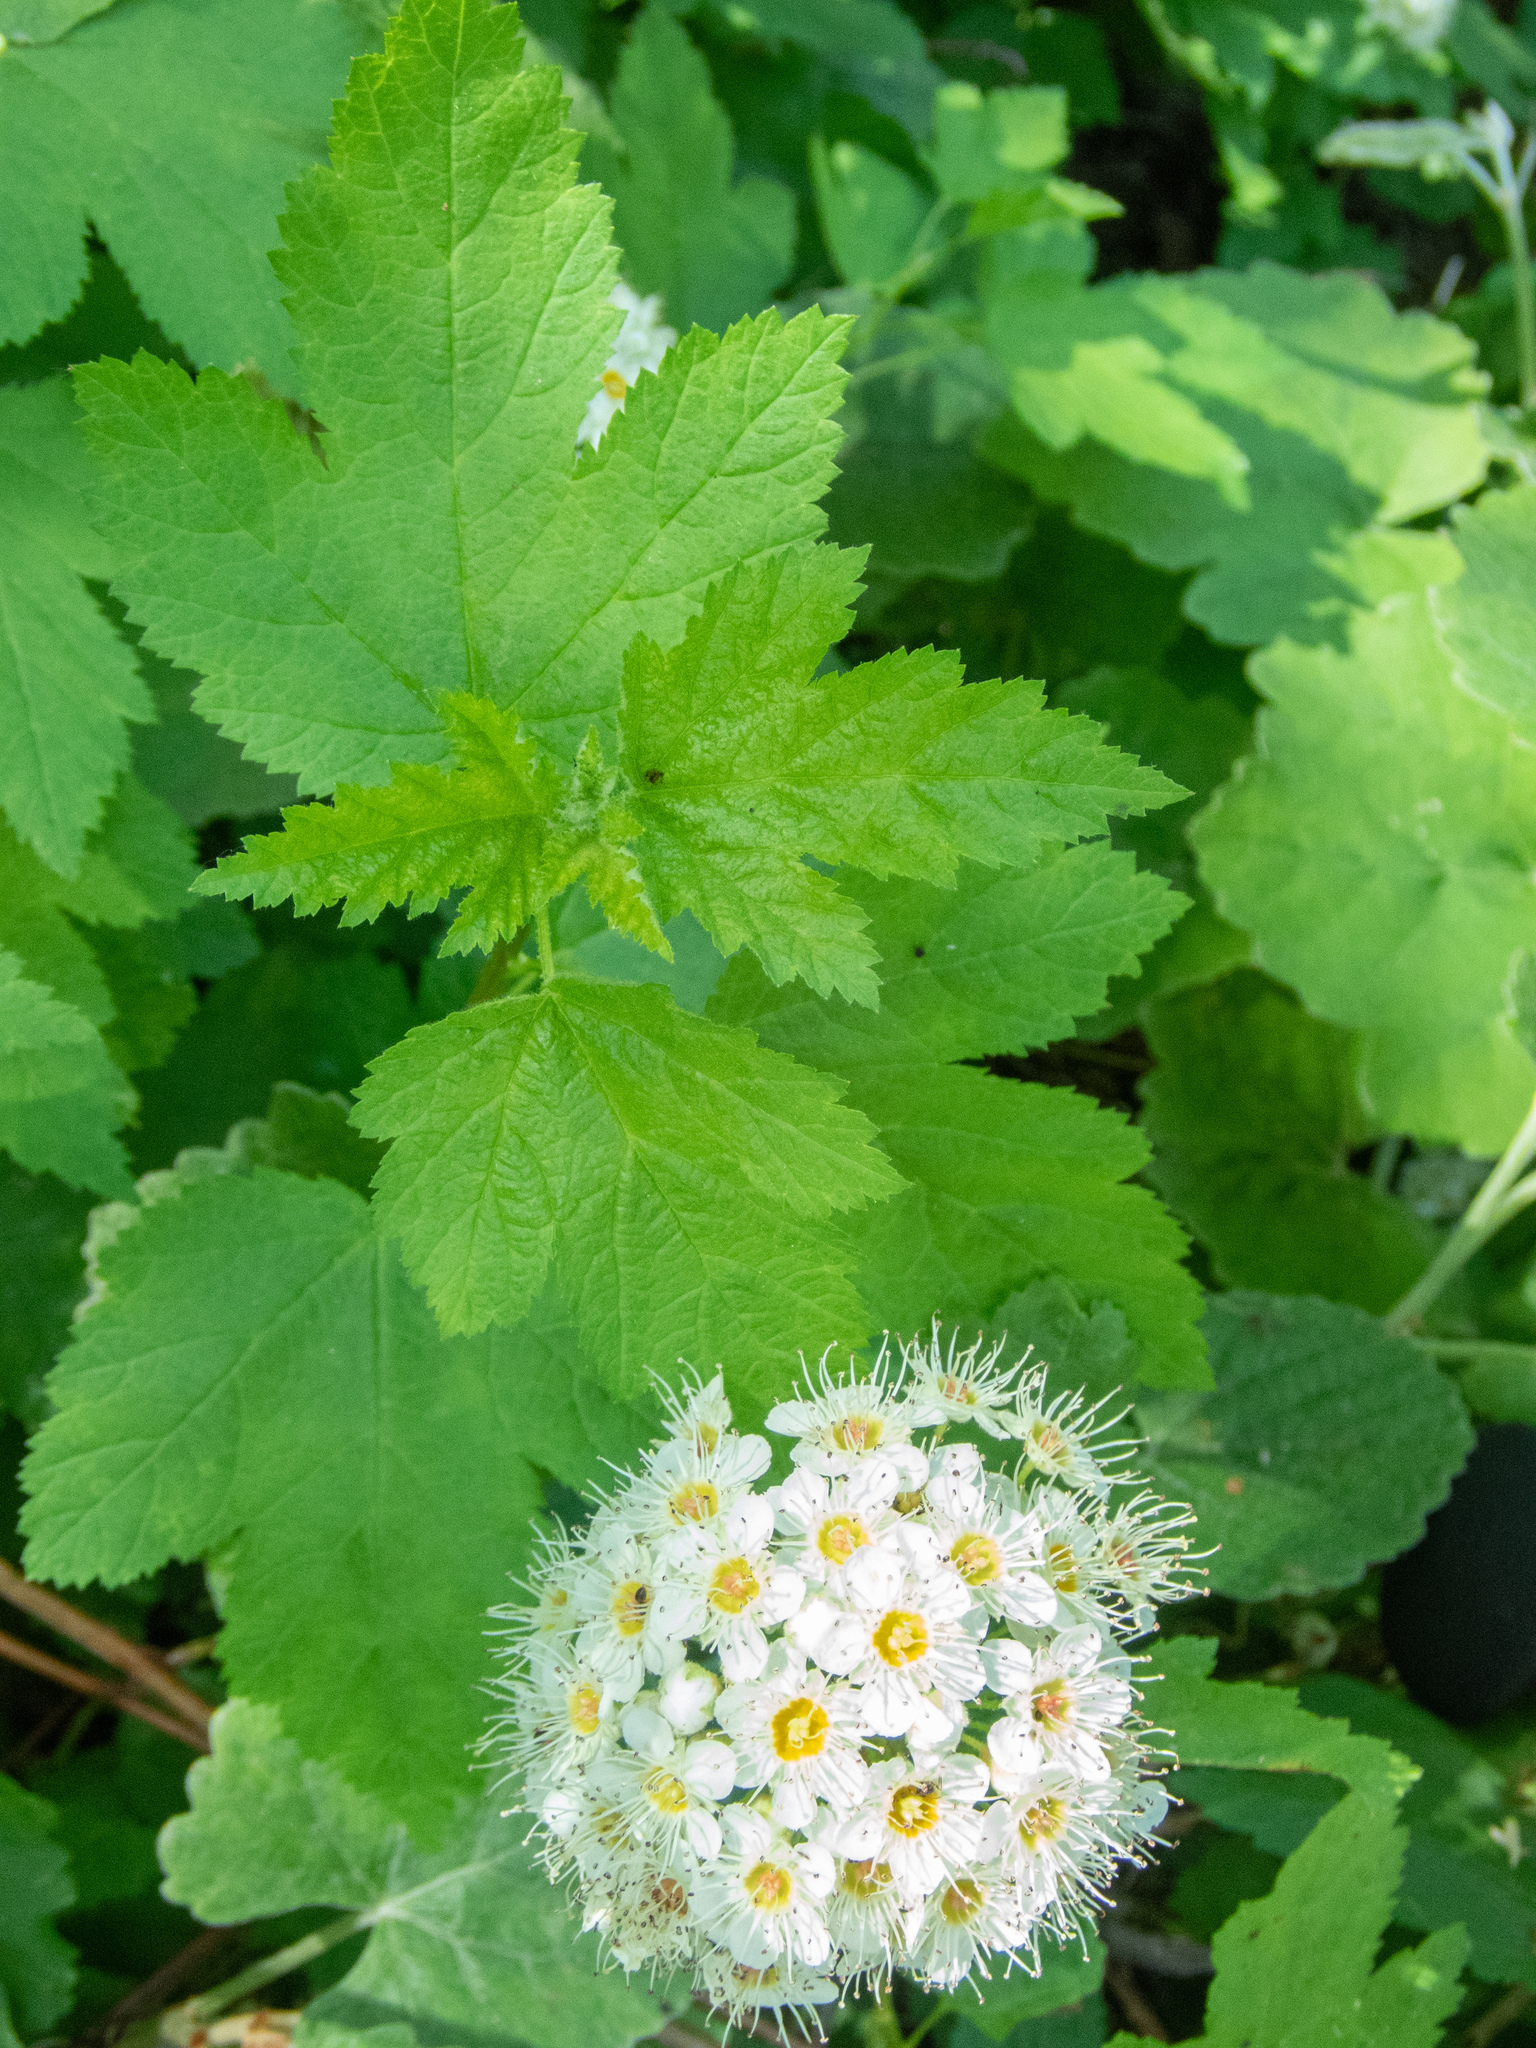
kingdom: Plantae
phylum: Tracheophyta
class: Magnoliopsida
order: Rosales
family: Rosaceae
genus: Physocarpus
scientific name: Physocarpus capitatus
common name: Pacific ninebark
